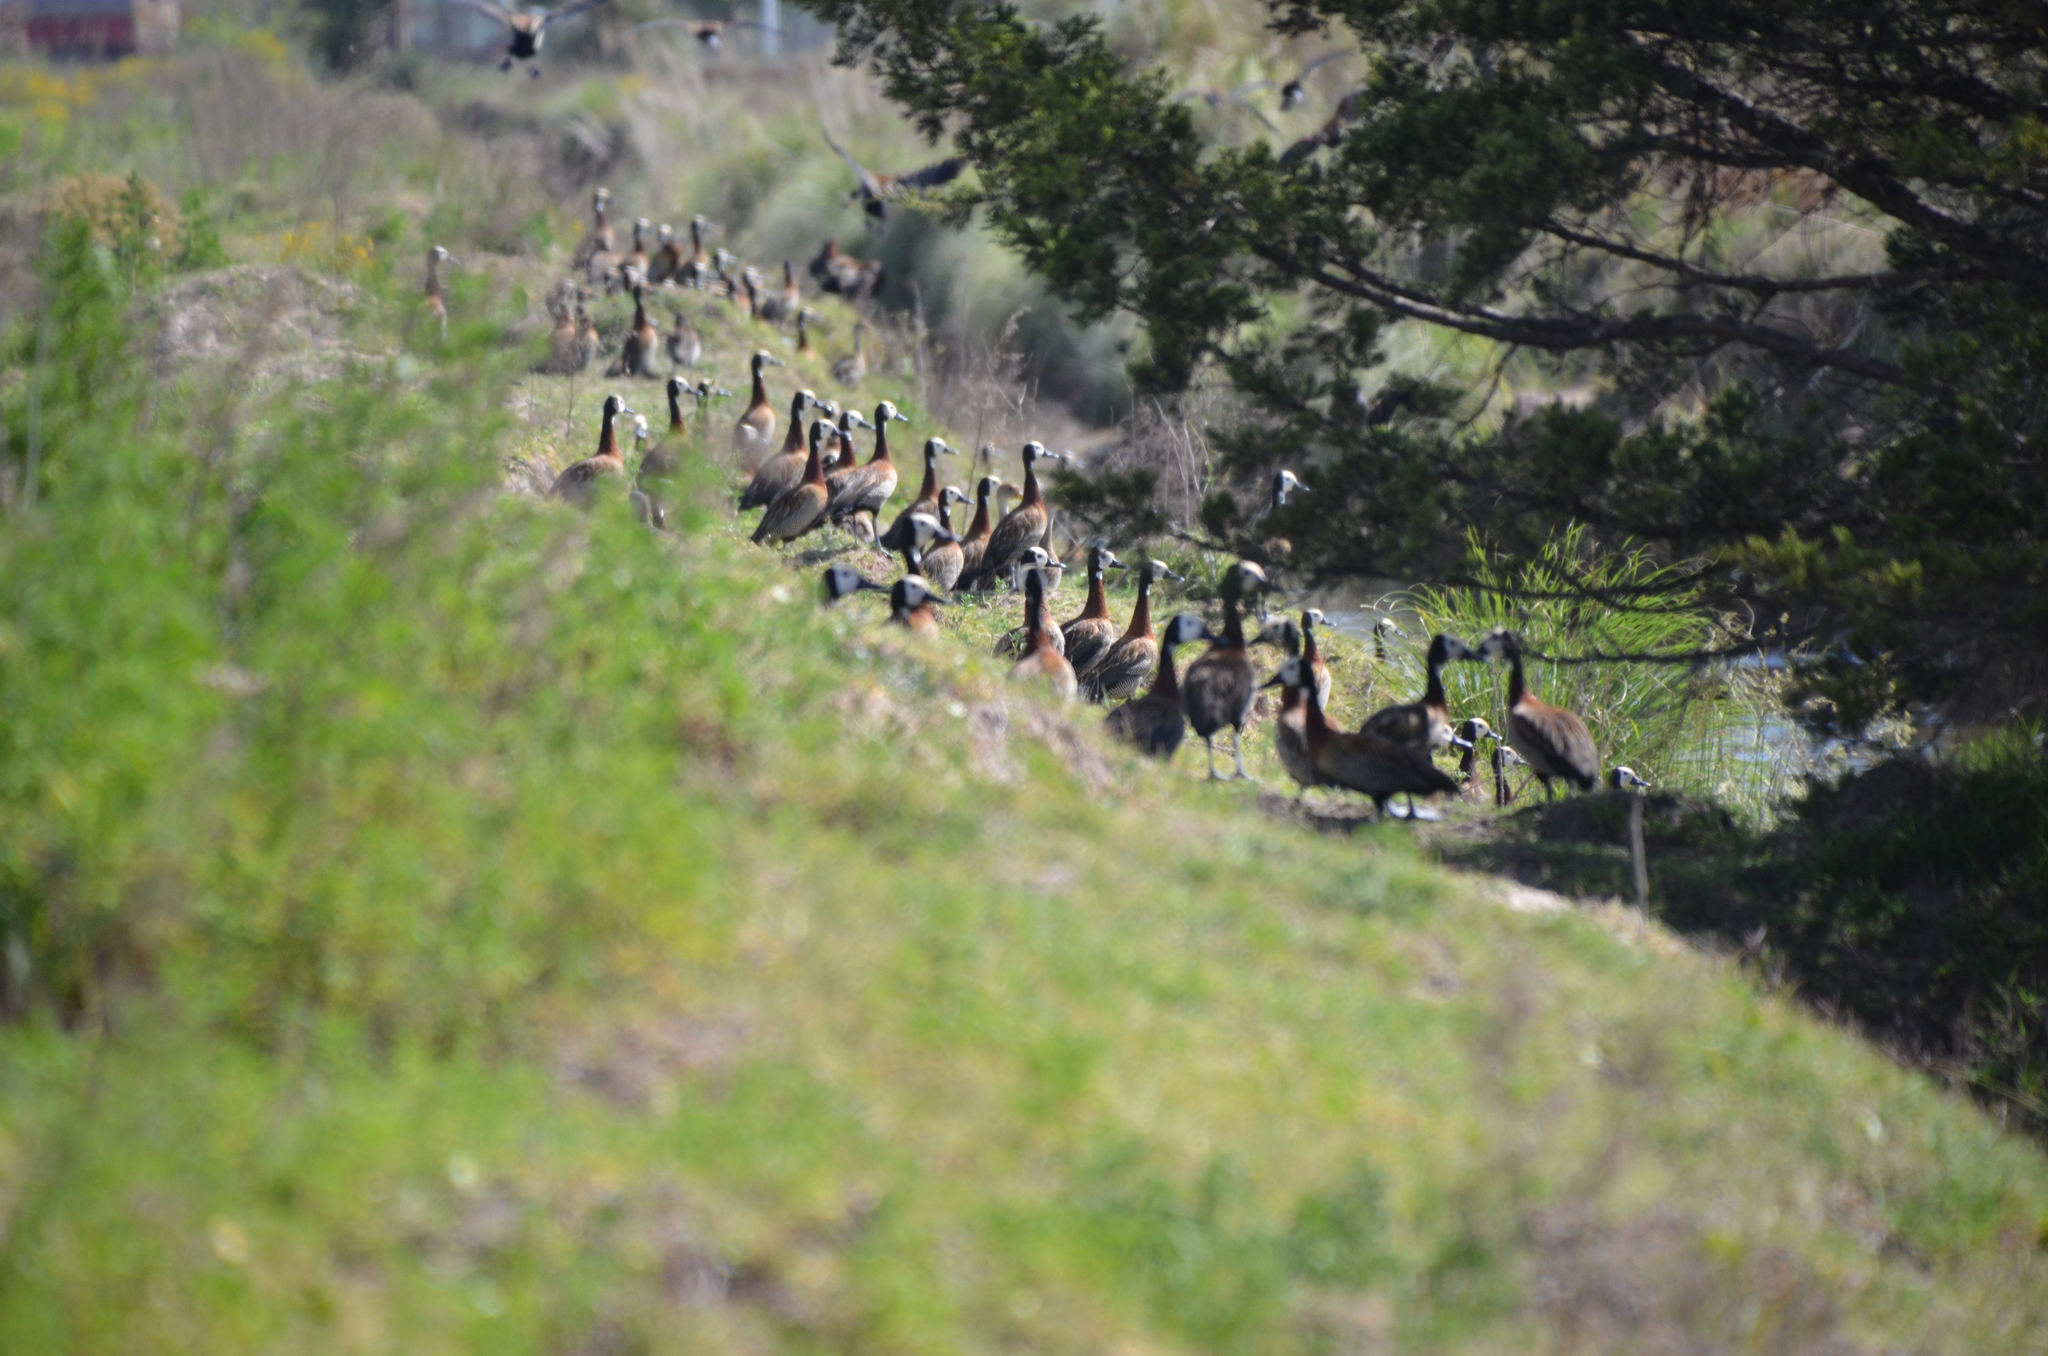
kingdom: Animalia
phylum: Chordata
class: Aves
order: Anseriformes
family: Anatidae
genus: Dendrocygna
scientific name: Dendrocygna viduata
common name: White-faced whistling duck
